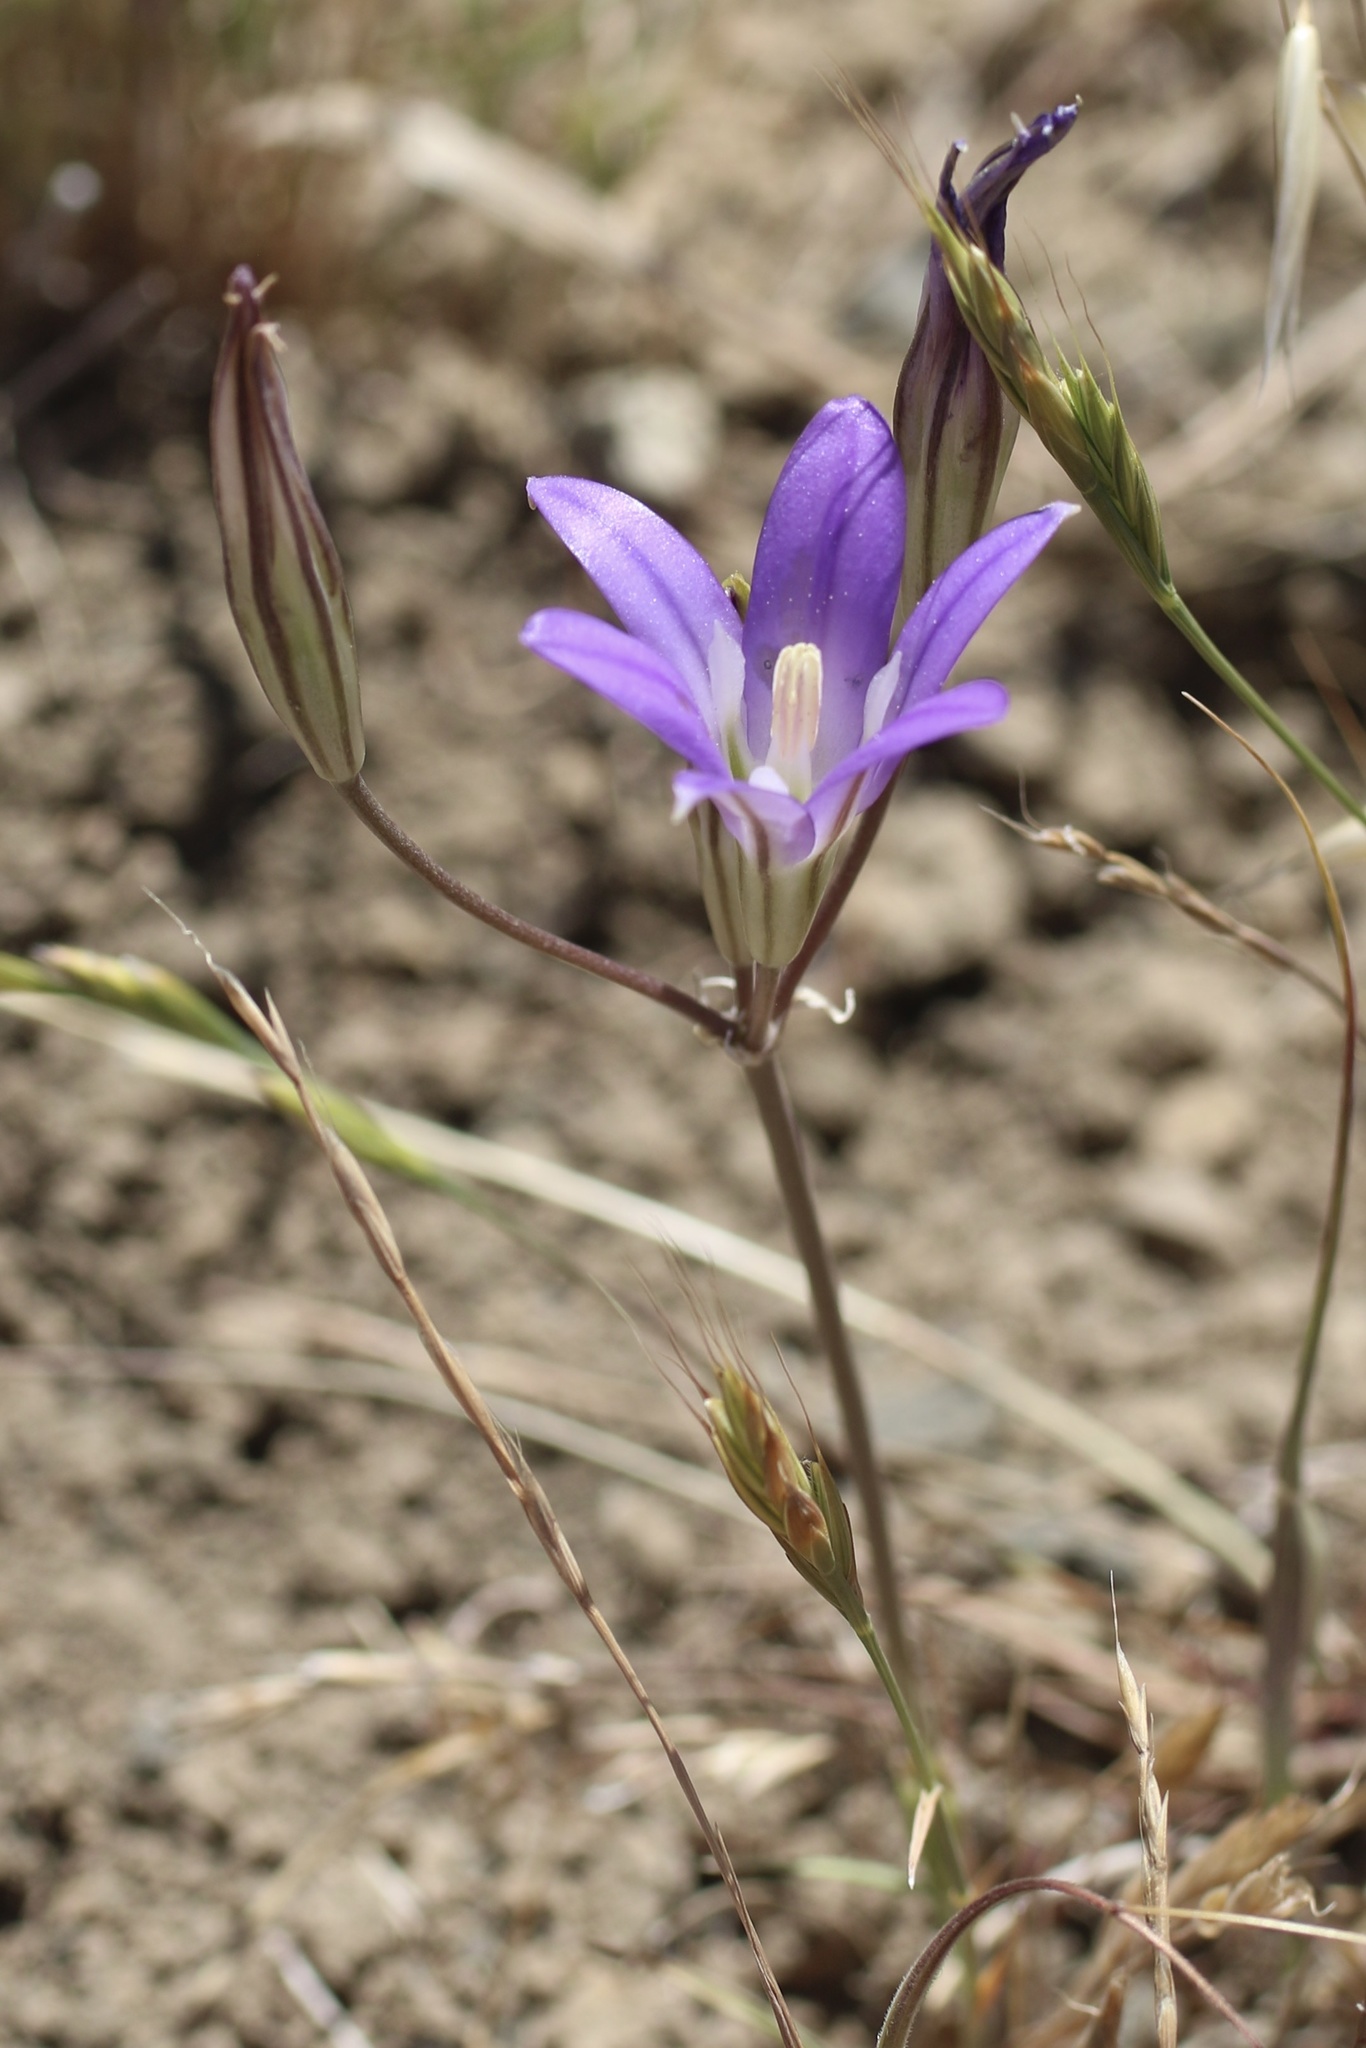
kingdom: Plantae
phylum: Tracheophyta
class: Liliopsida
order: Asparagales
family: Asparagaceae
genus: Brodiaea
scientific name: Brodiaea elegans
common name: Elegant cluster-lily
